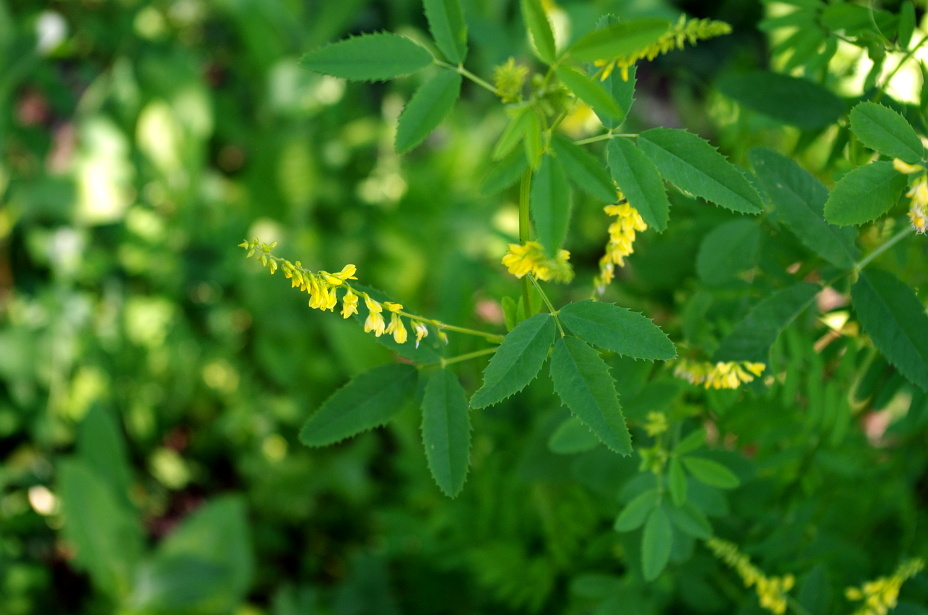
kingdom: Plantae
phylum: Tracheophyta
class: Magnoliopsida
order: Fabales
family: Fabaceae
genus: Melilotus
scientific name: Melilotus officinalis
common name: Sweetclover
